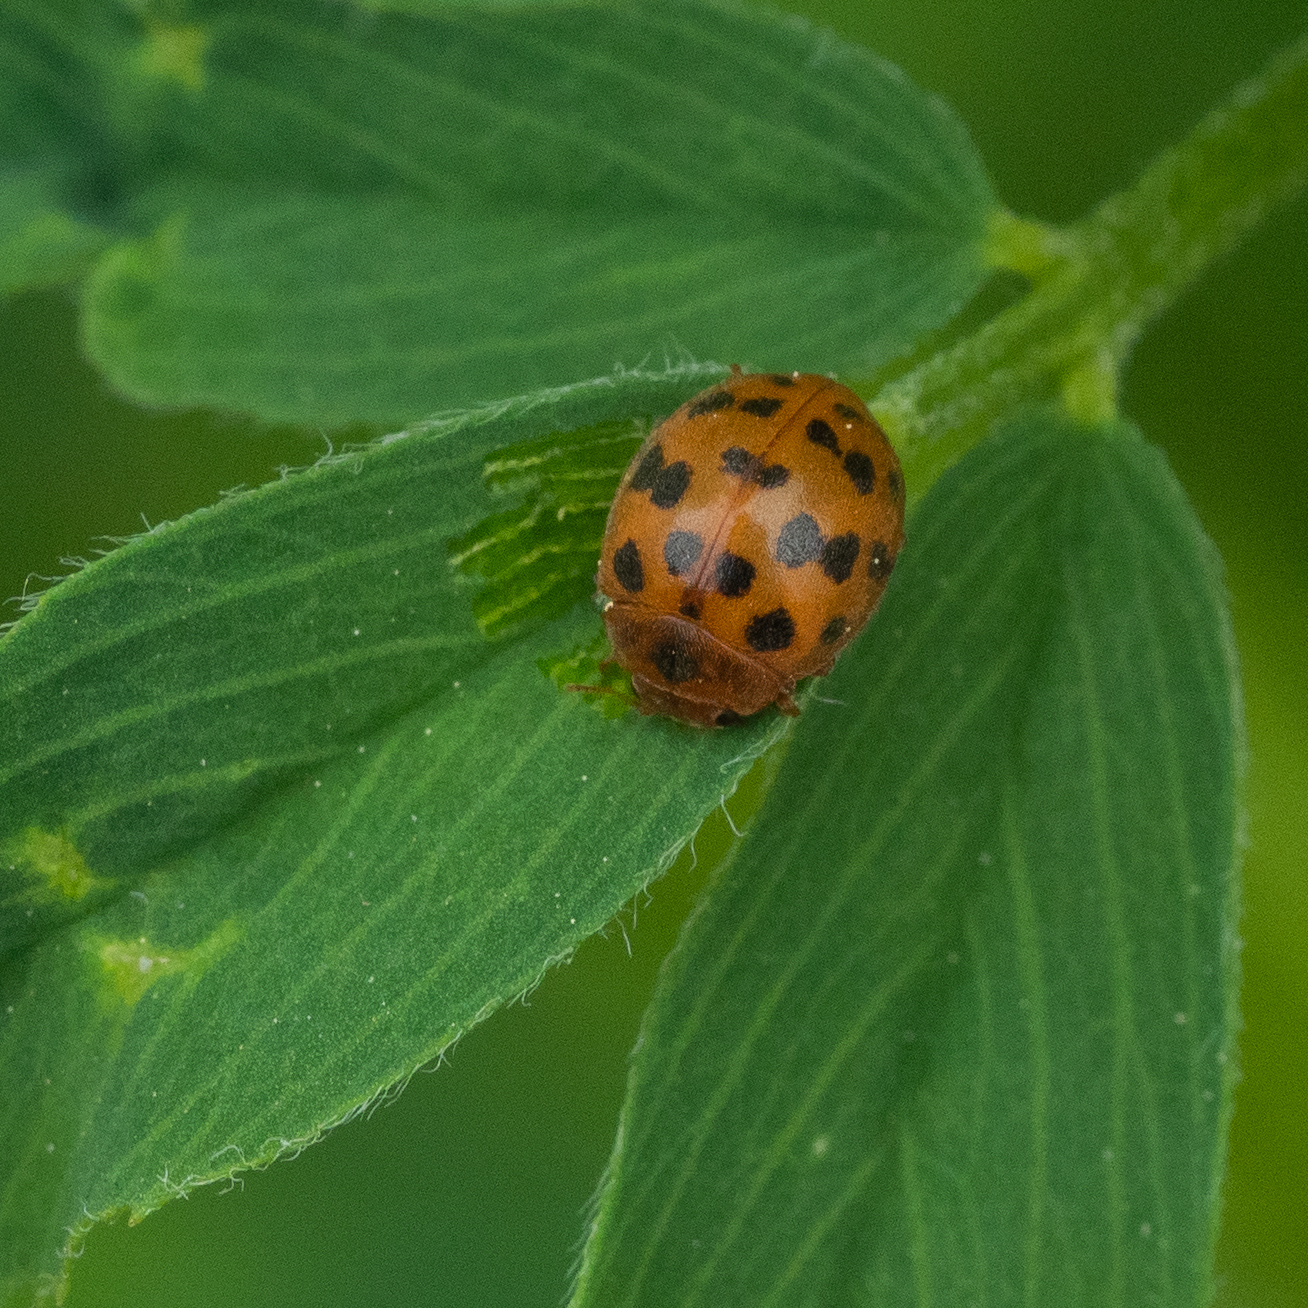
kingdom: Animalia
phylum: Arthropoda
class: Insecta
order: Coleoptera
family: Coccinellidae
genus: Subcoccinella
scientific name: Subcoccinella vigintiquatuorpunctata
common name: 24-spot ladybird
